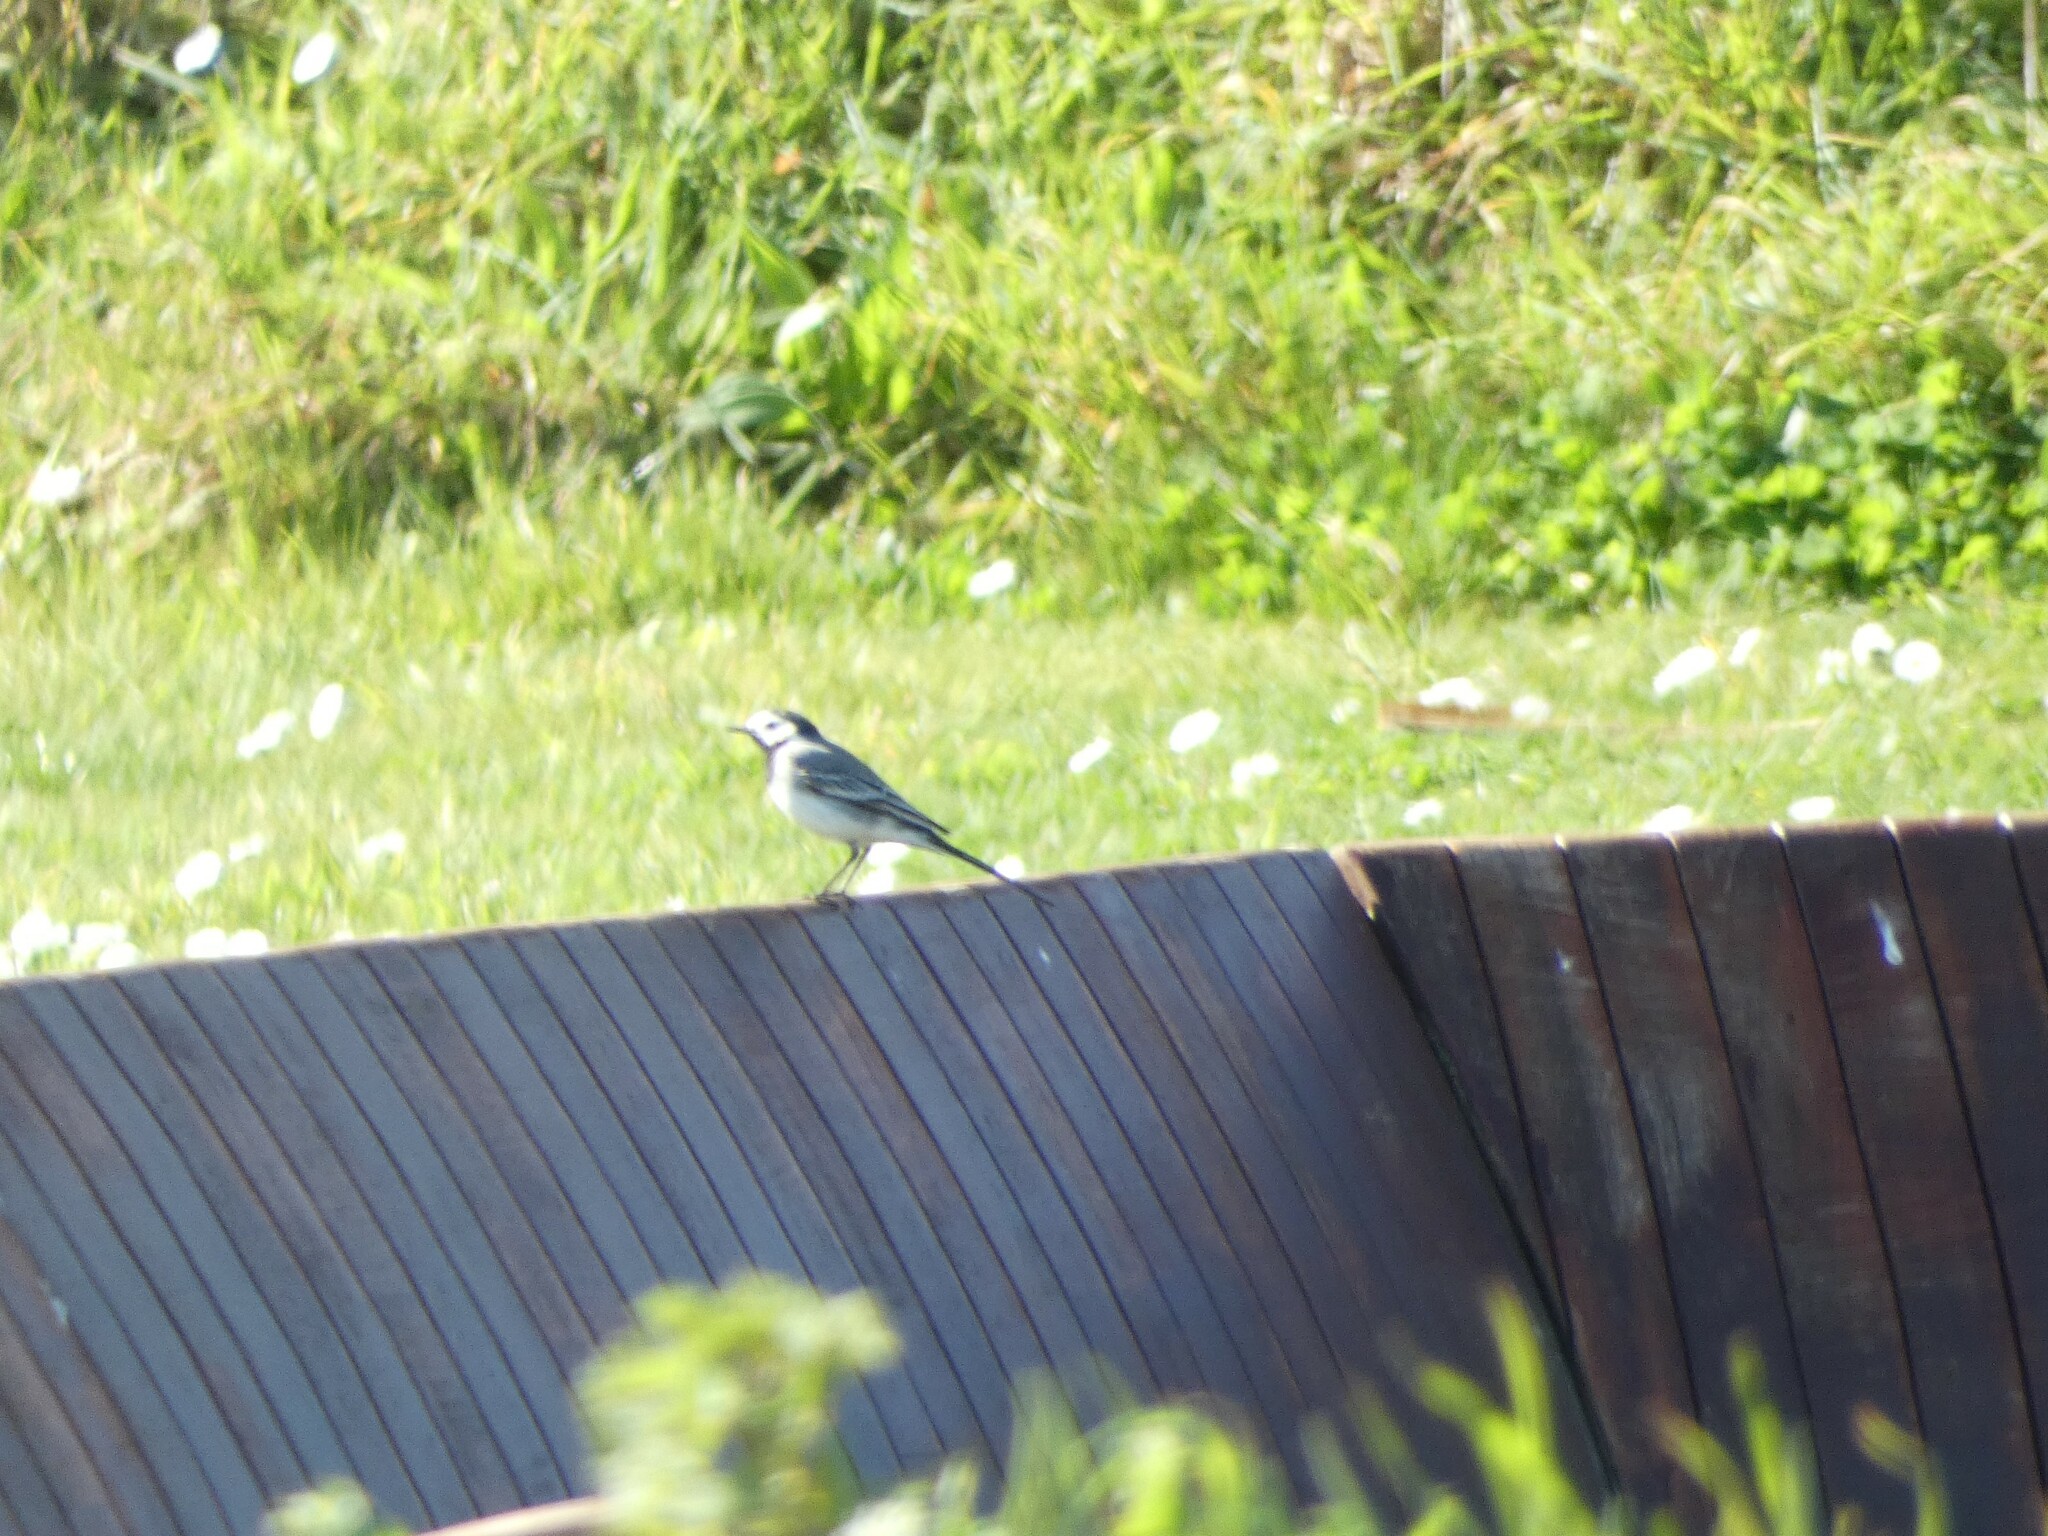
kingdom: Animalia
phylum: Chordata
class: Aves
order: Passeriformes
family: Motacillidae
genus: Motacilla
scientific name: Motacilla alba
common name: White wagtail
